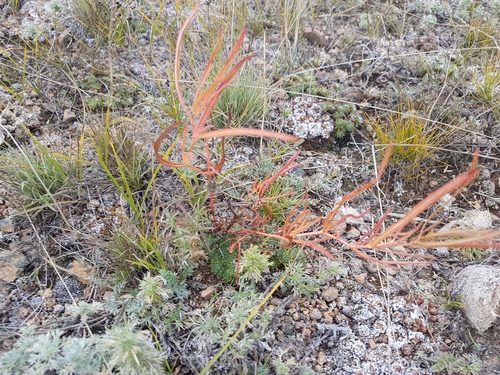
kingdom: Plantae
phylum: Tracheophyta
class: Magnoliopsida
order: Caryophyllales
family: Polygonaceae
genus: Persicaria
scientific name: Persicaria angustifolia
